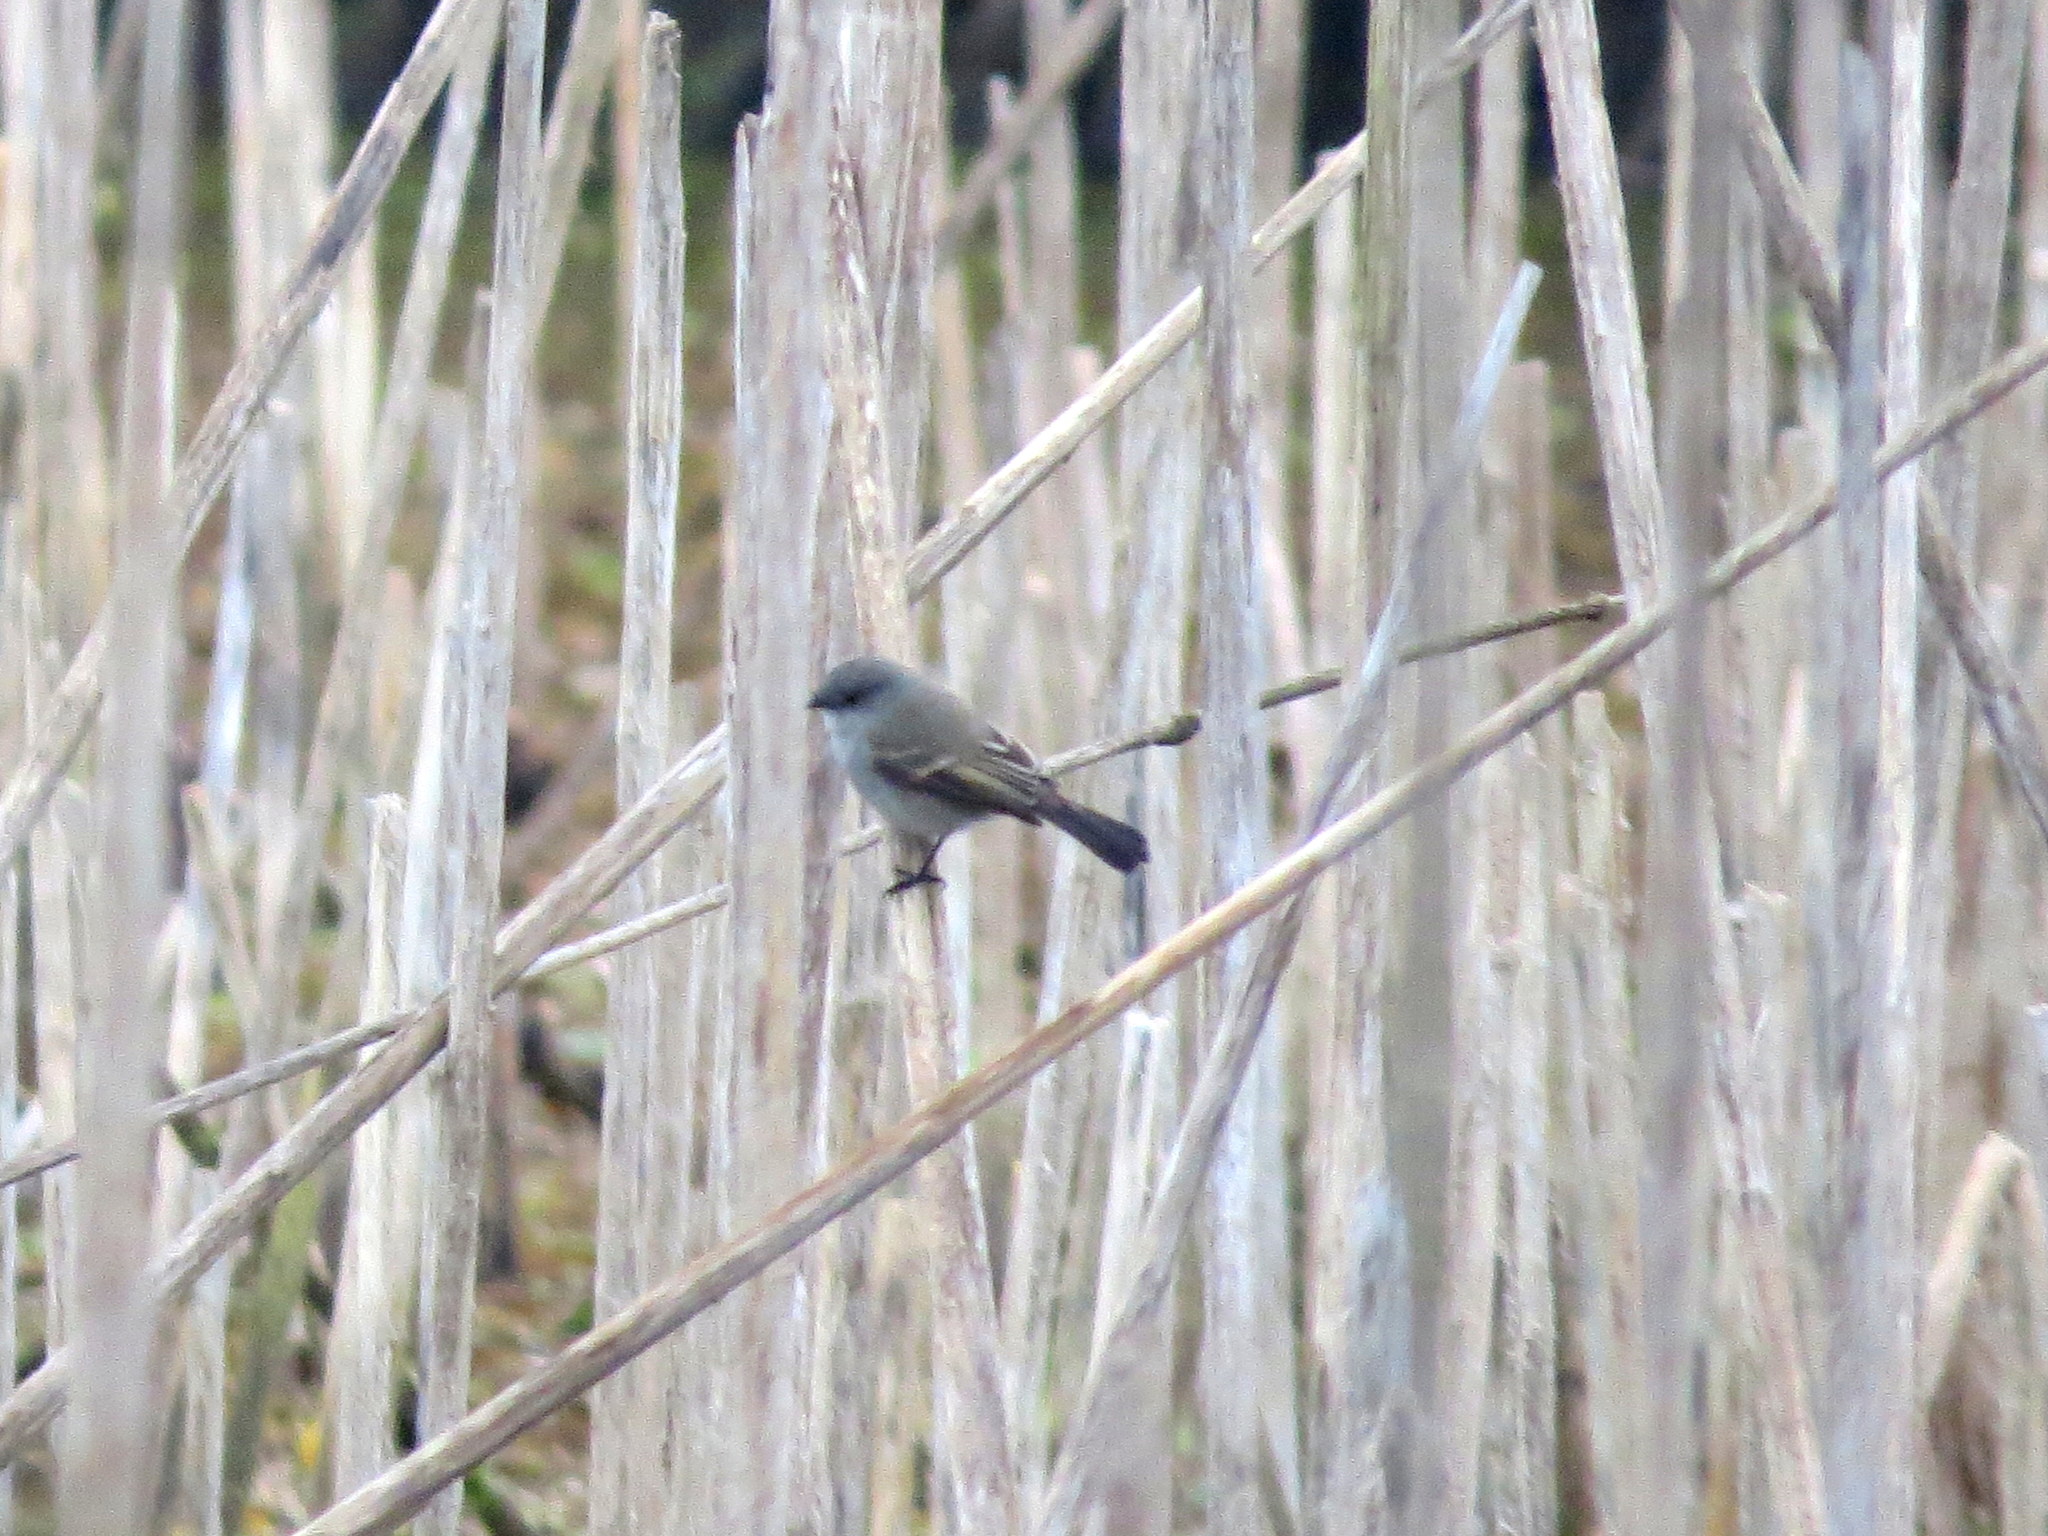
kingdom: Animalia
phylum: Chordata
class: Aves
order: Passeriformes
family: Tyrannidae
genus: Serpophaga
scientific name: Serpophaga nigricans
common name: Sooty tyrannulet
